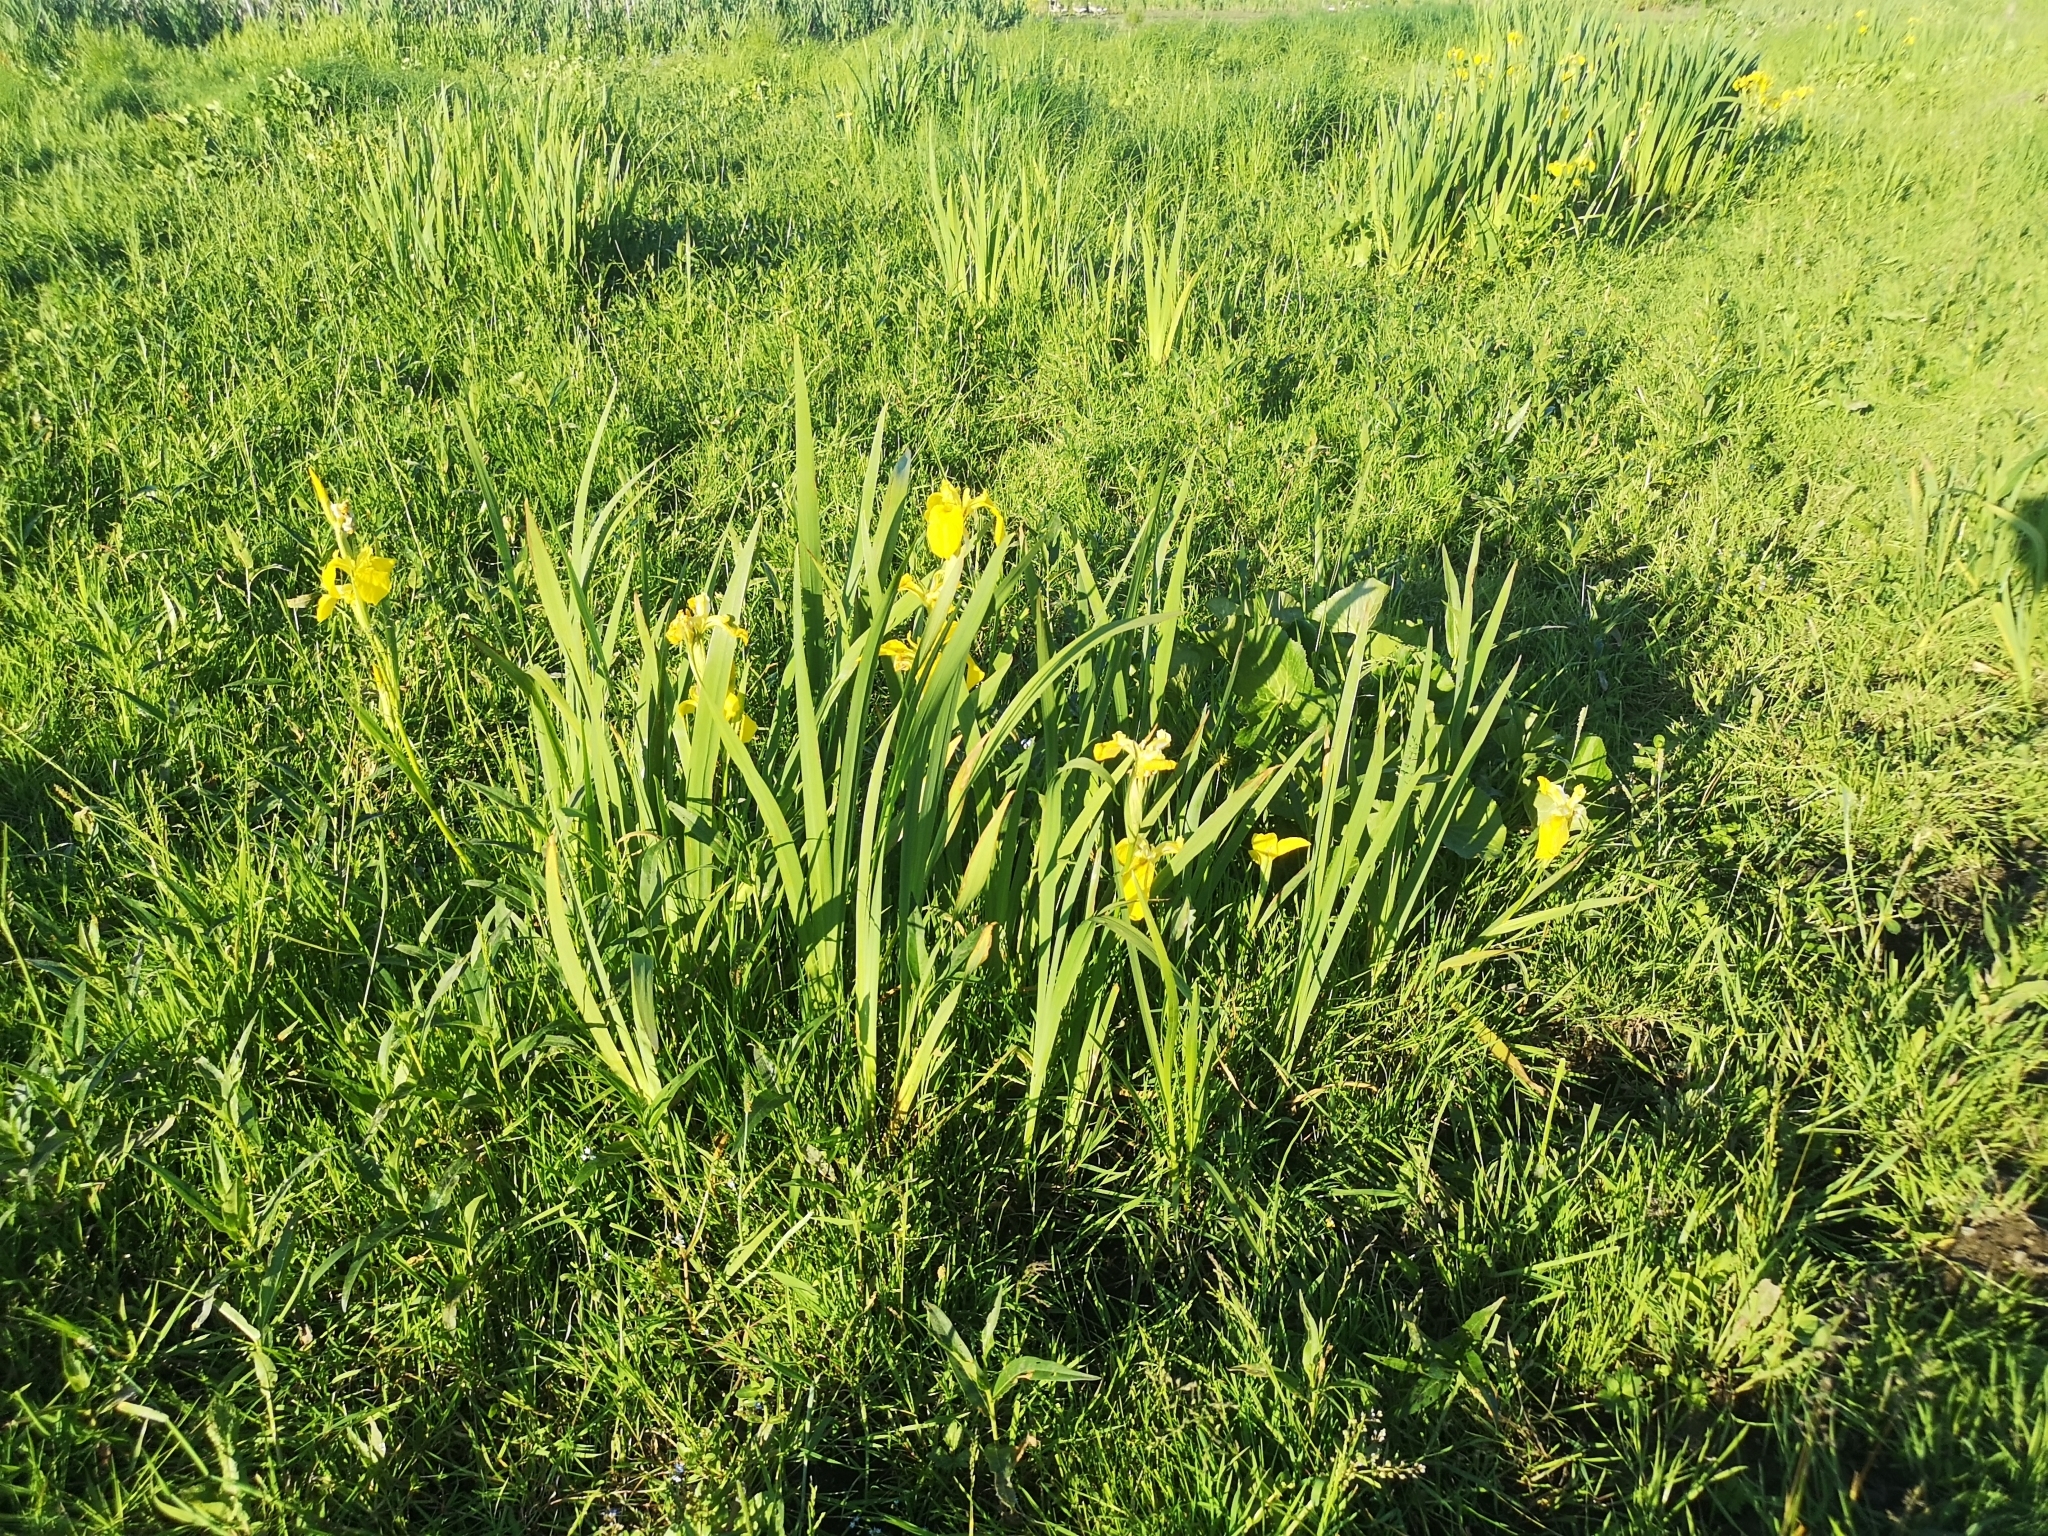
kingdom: Plantae
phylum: Tracheophyta
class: Liliopsida
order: Asparagales
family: Iridaceae
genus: Iris
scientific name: Iris pseudacorus
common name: Yellow flag
